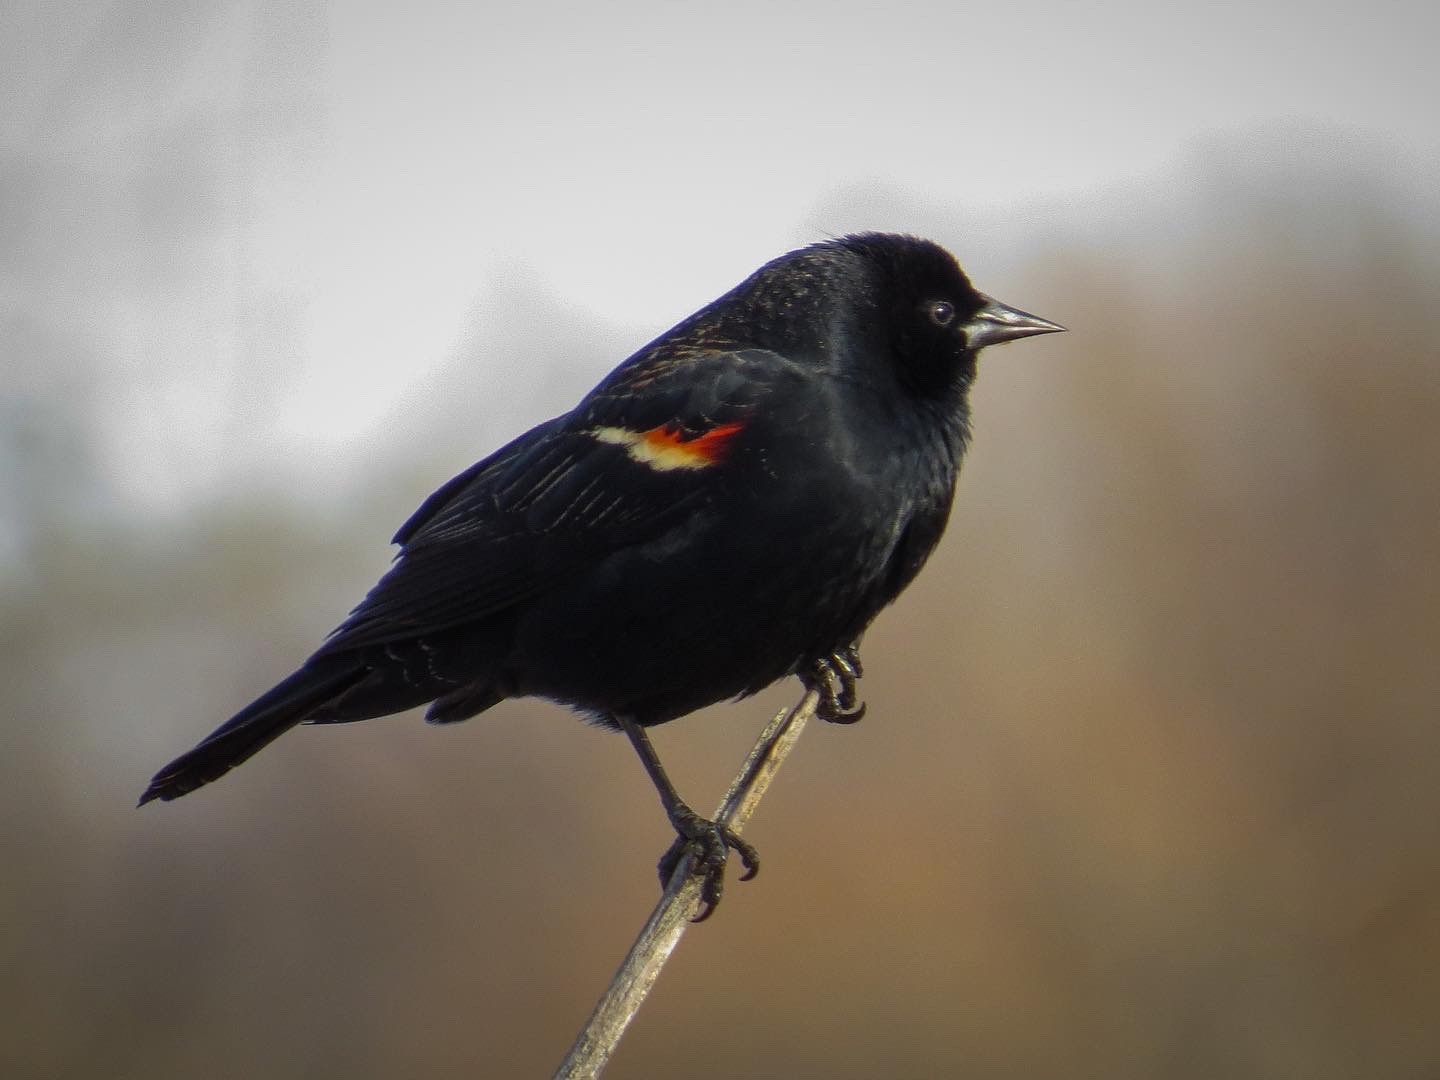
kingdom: Animalia
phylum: Chordata
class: Aves
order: Passeriformes
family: Icteridae
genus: Agelaius
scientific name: Agelaius phoeniceus
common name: Red-winged blackbird
